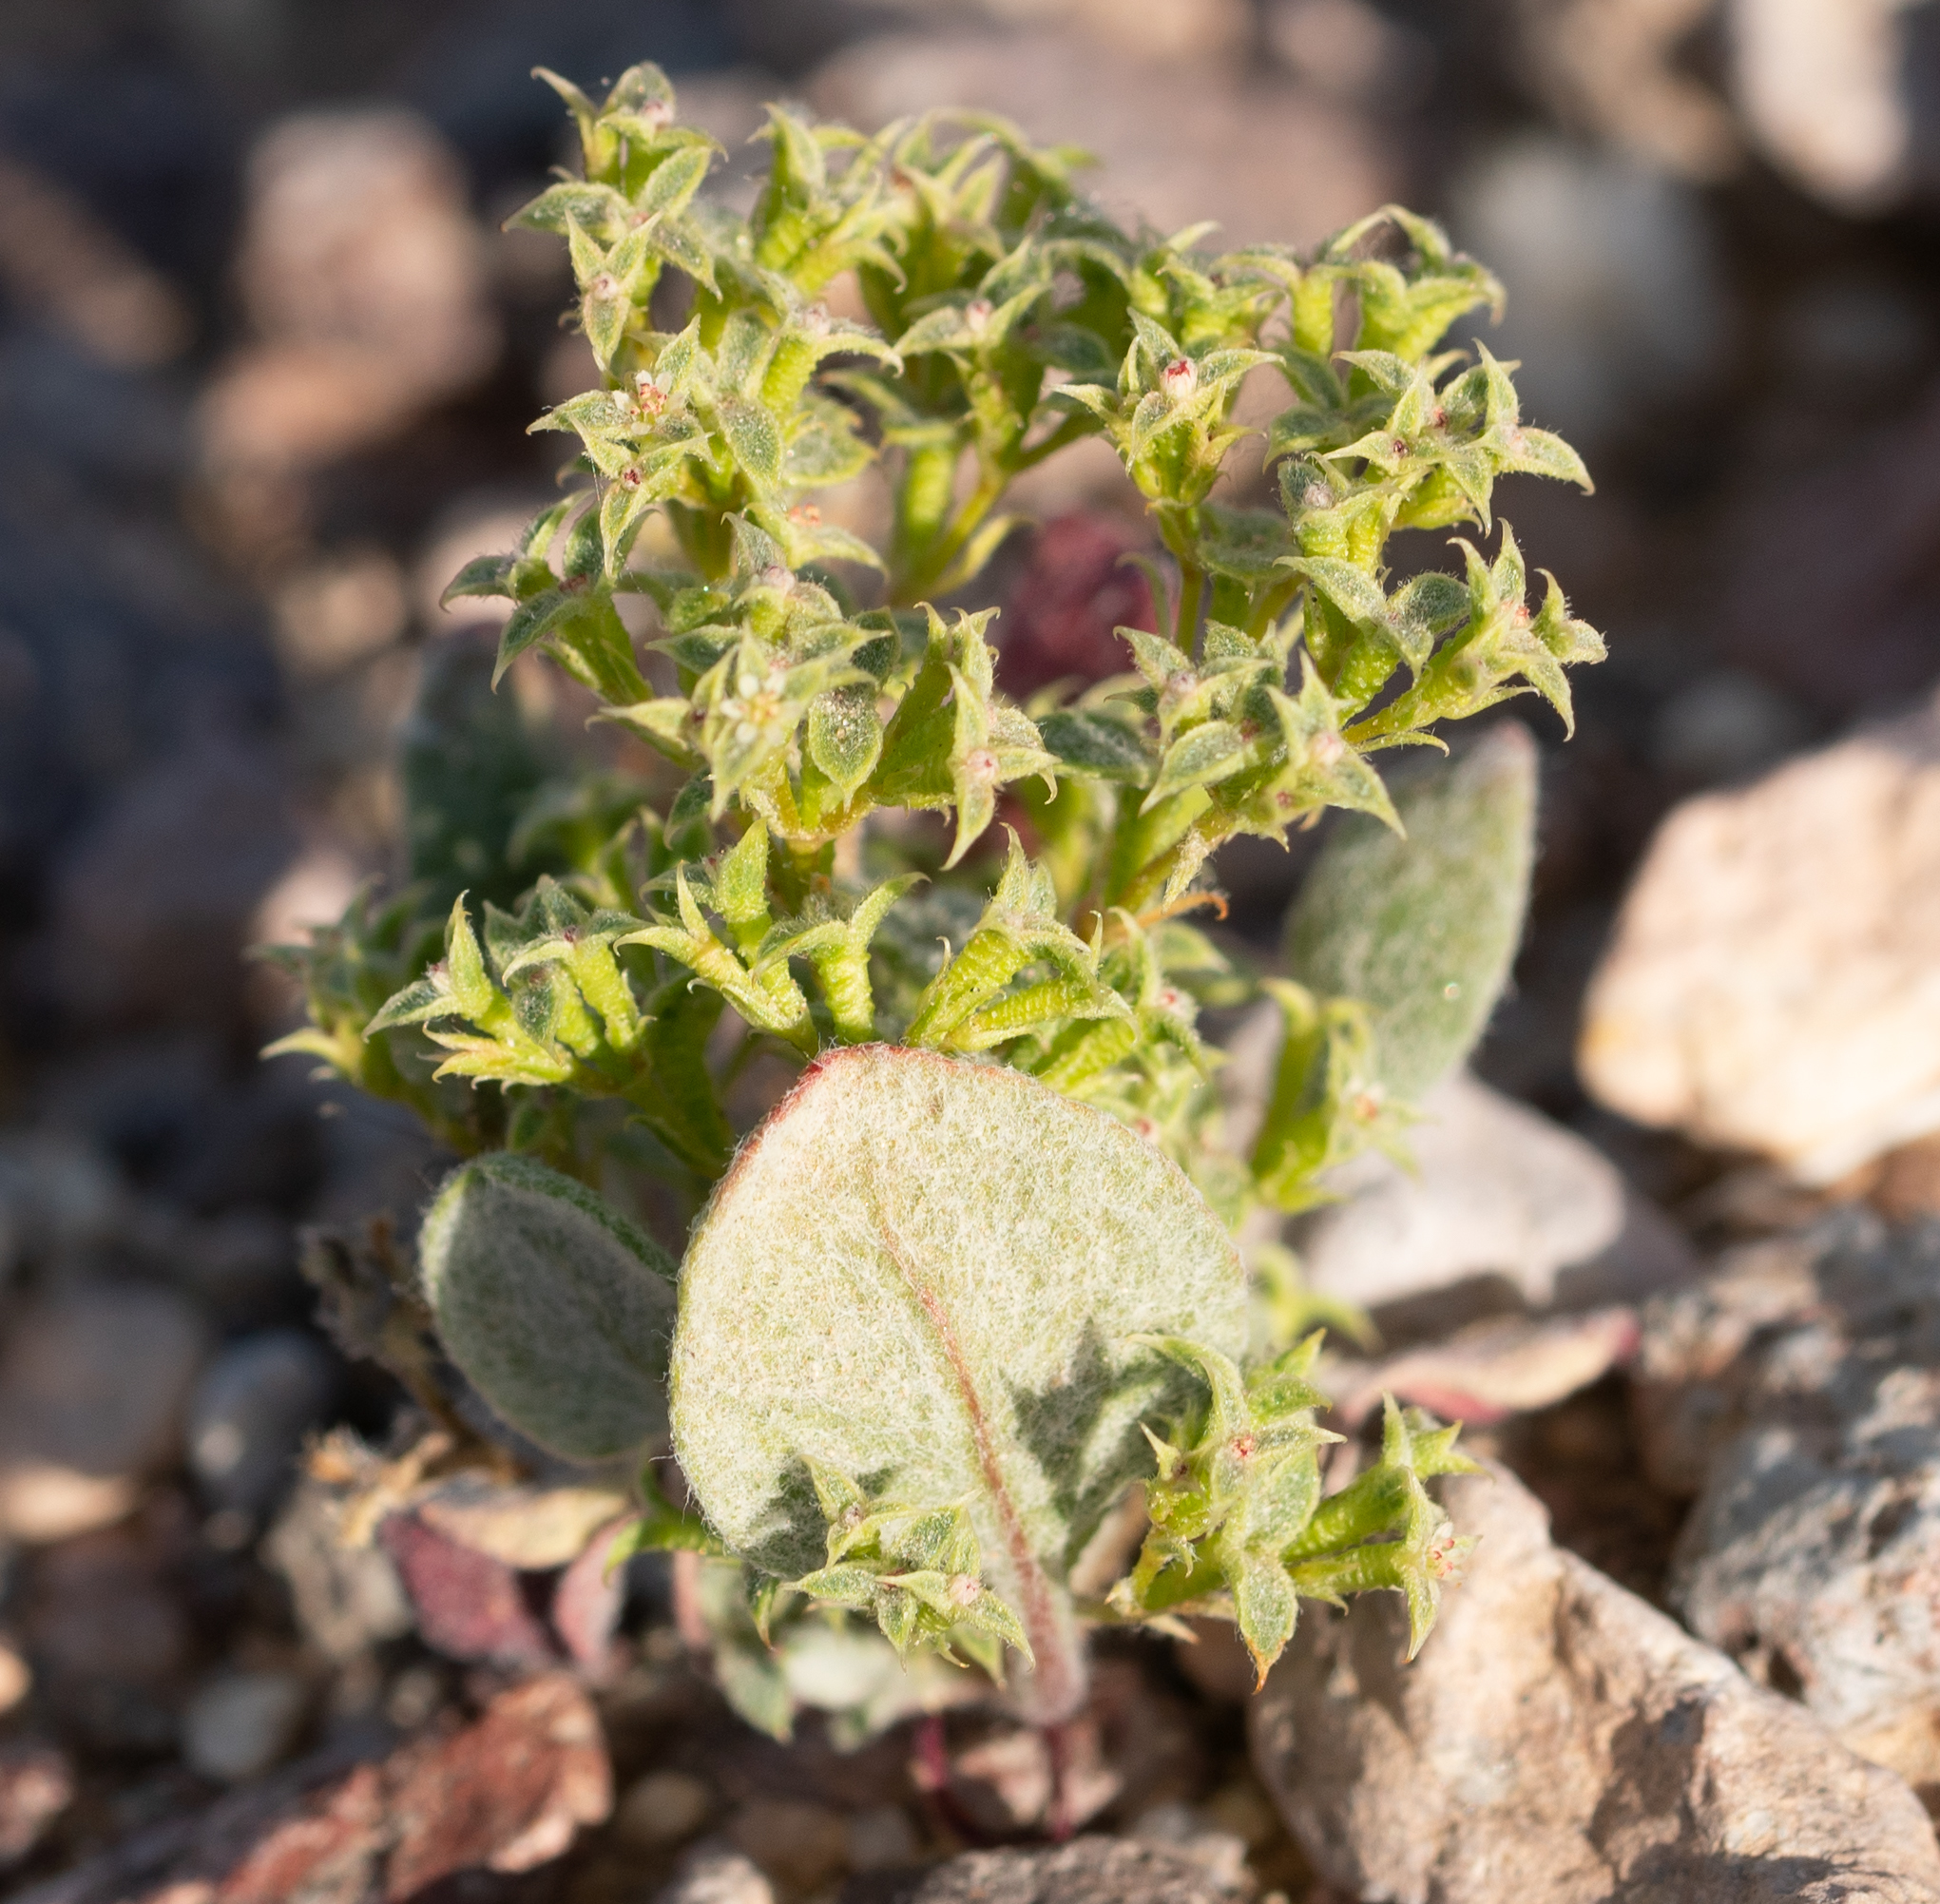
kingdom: Plantae
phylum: Tracheophyta
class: Magnoliopsida
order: Caryophyllales
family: Polygonaceae
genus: Chorizanthe
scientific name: Chorizanthe corrugata
